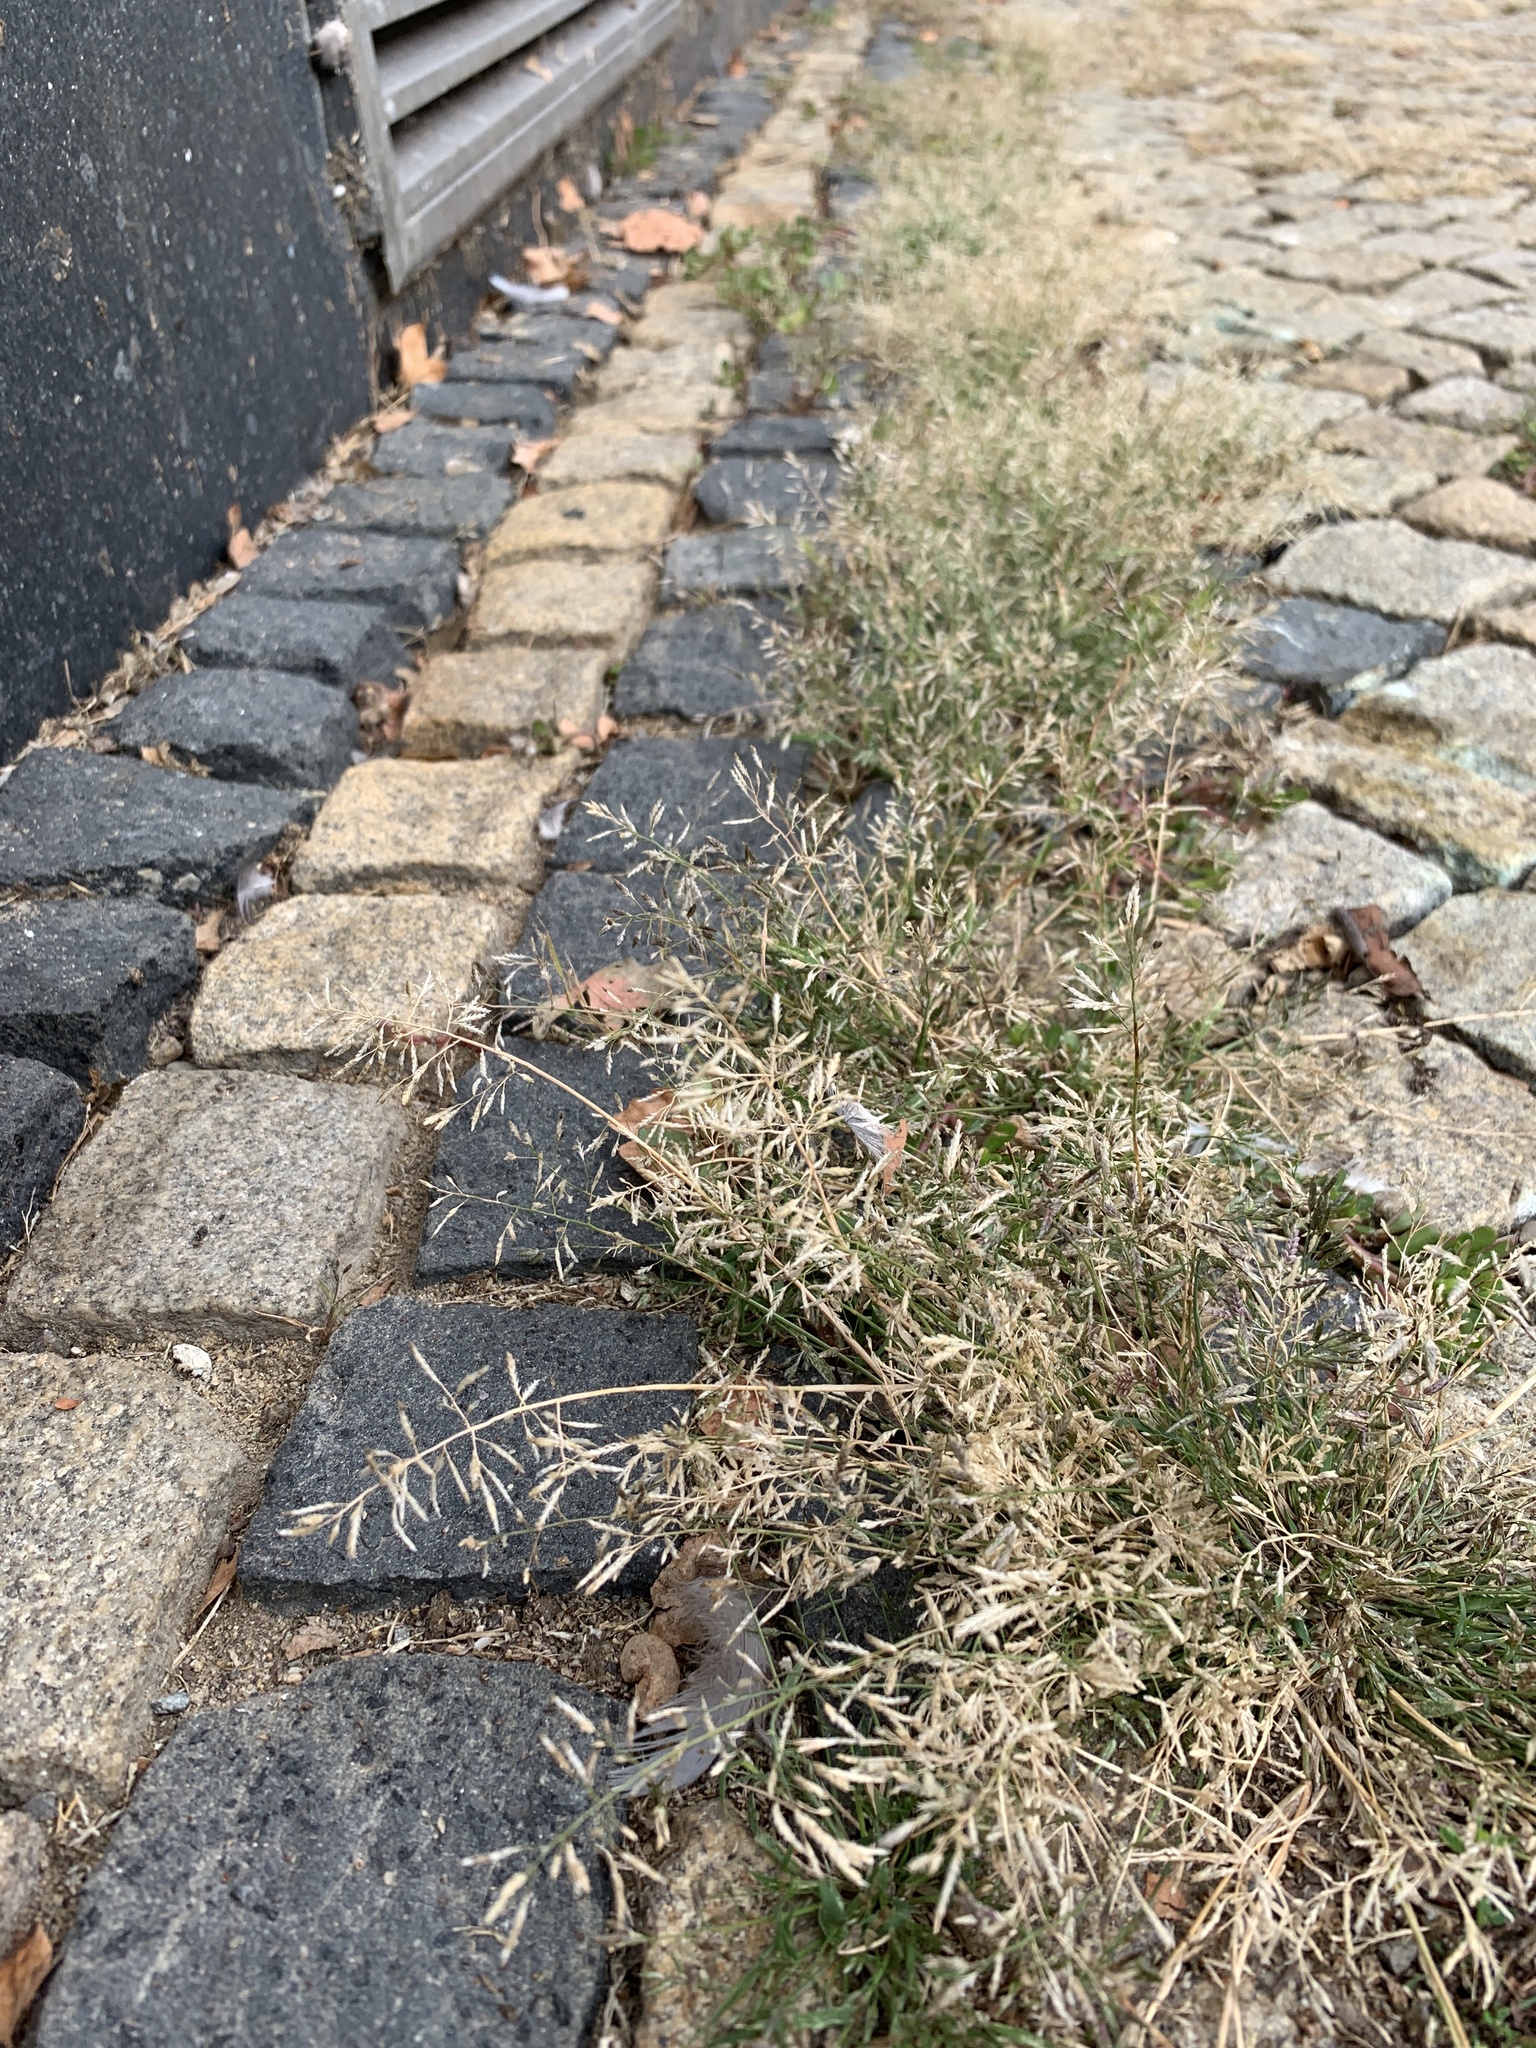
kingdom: Plantae
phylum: Tracheophyta
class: Liliopsida
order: Poales
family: Poaceae
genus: Eragrostis
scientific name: Eragrostis minor
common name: Small love-grass
